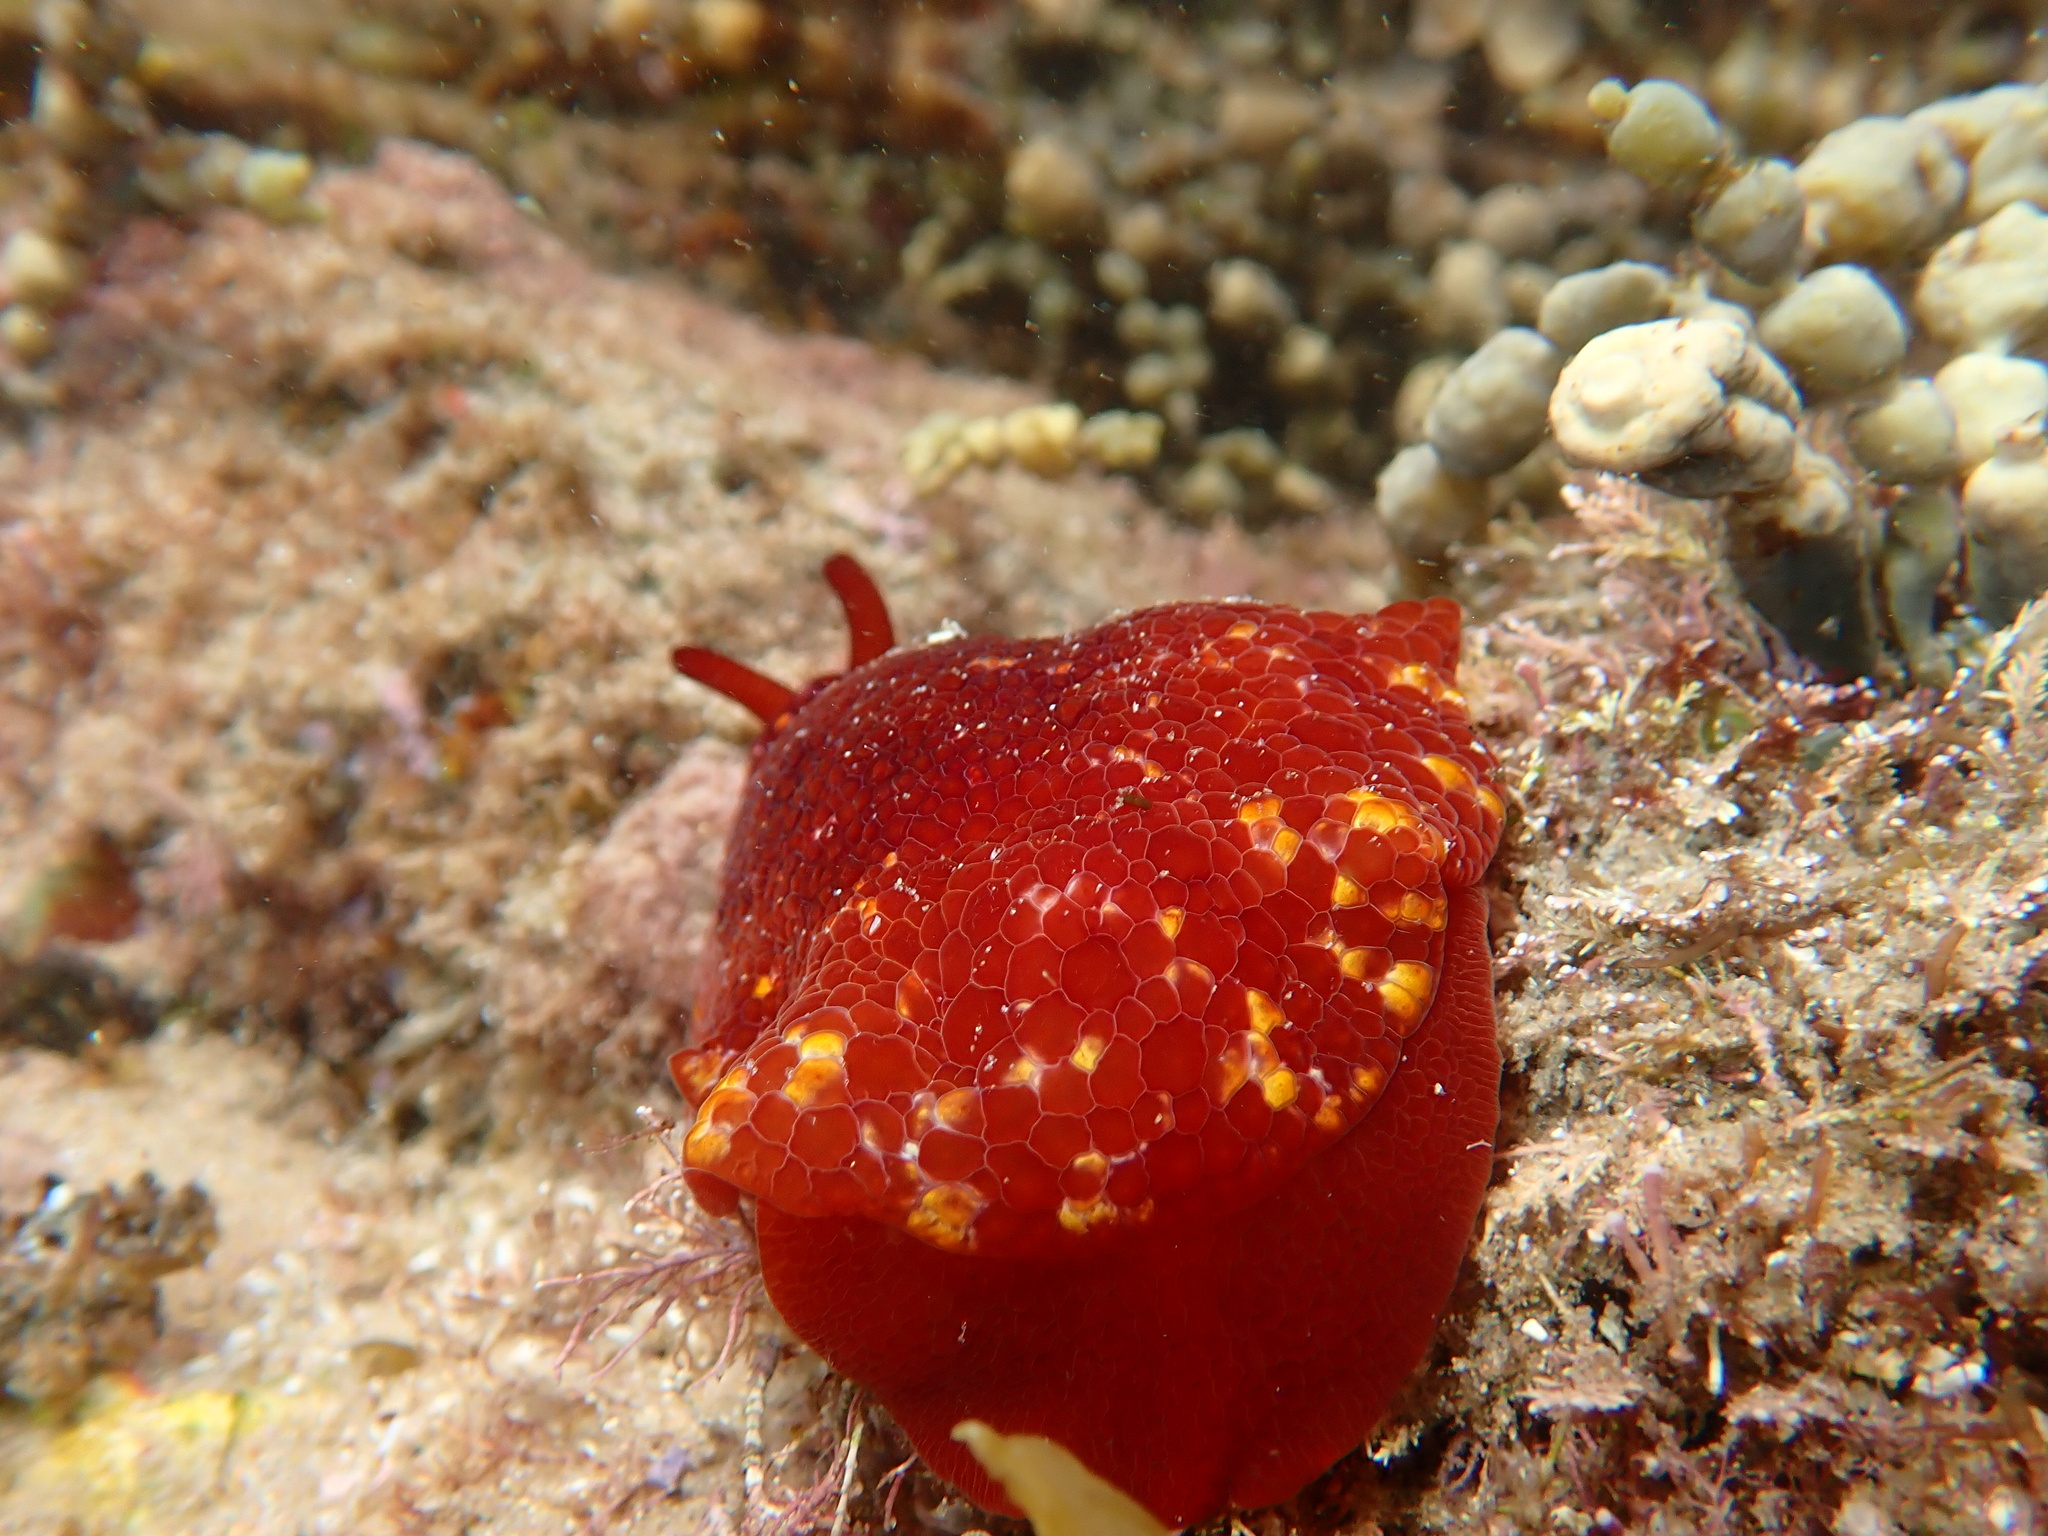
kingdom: Animalia
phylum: Mollusca
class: Gastropoda
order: Pleurobranchida
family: Pleurobranchidae
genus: Pleurobranchus
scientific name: Pleurobranchus peronii
